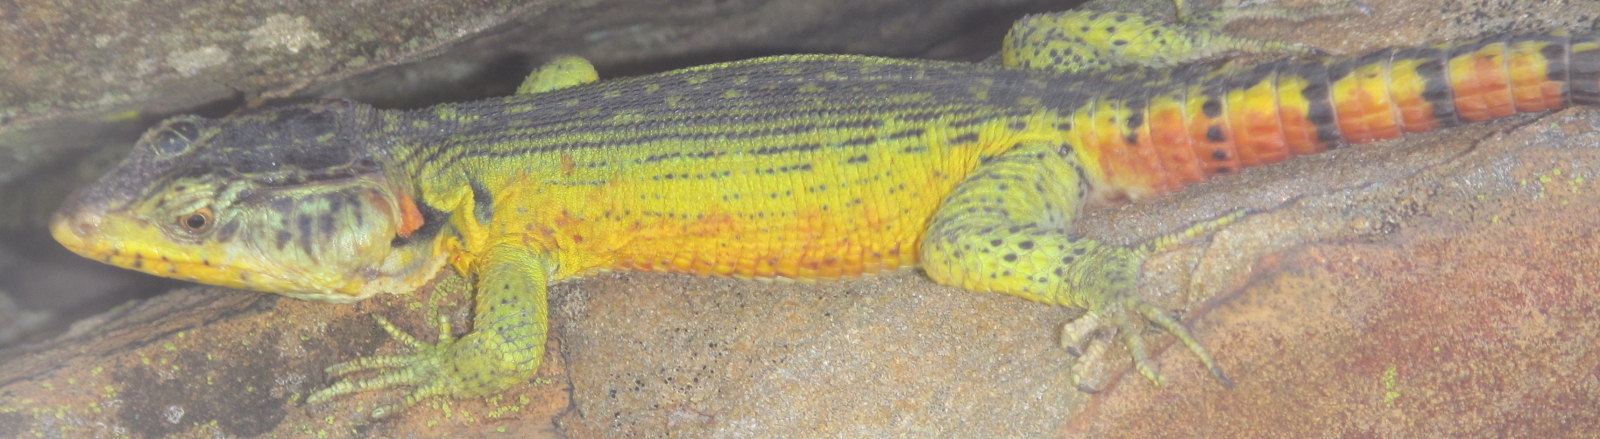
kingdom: Animalia
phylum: Chordata
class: Squamata
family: Cordylidae
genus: Pseudocordylus
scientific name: Pseudocordylus subviridis
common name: Drakensberg crag lizard
